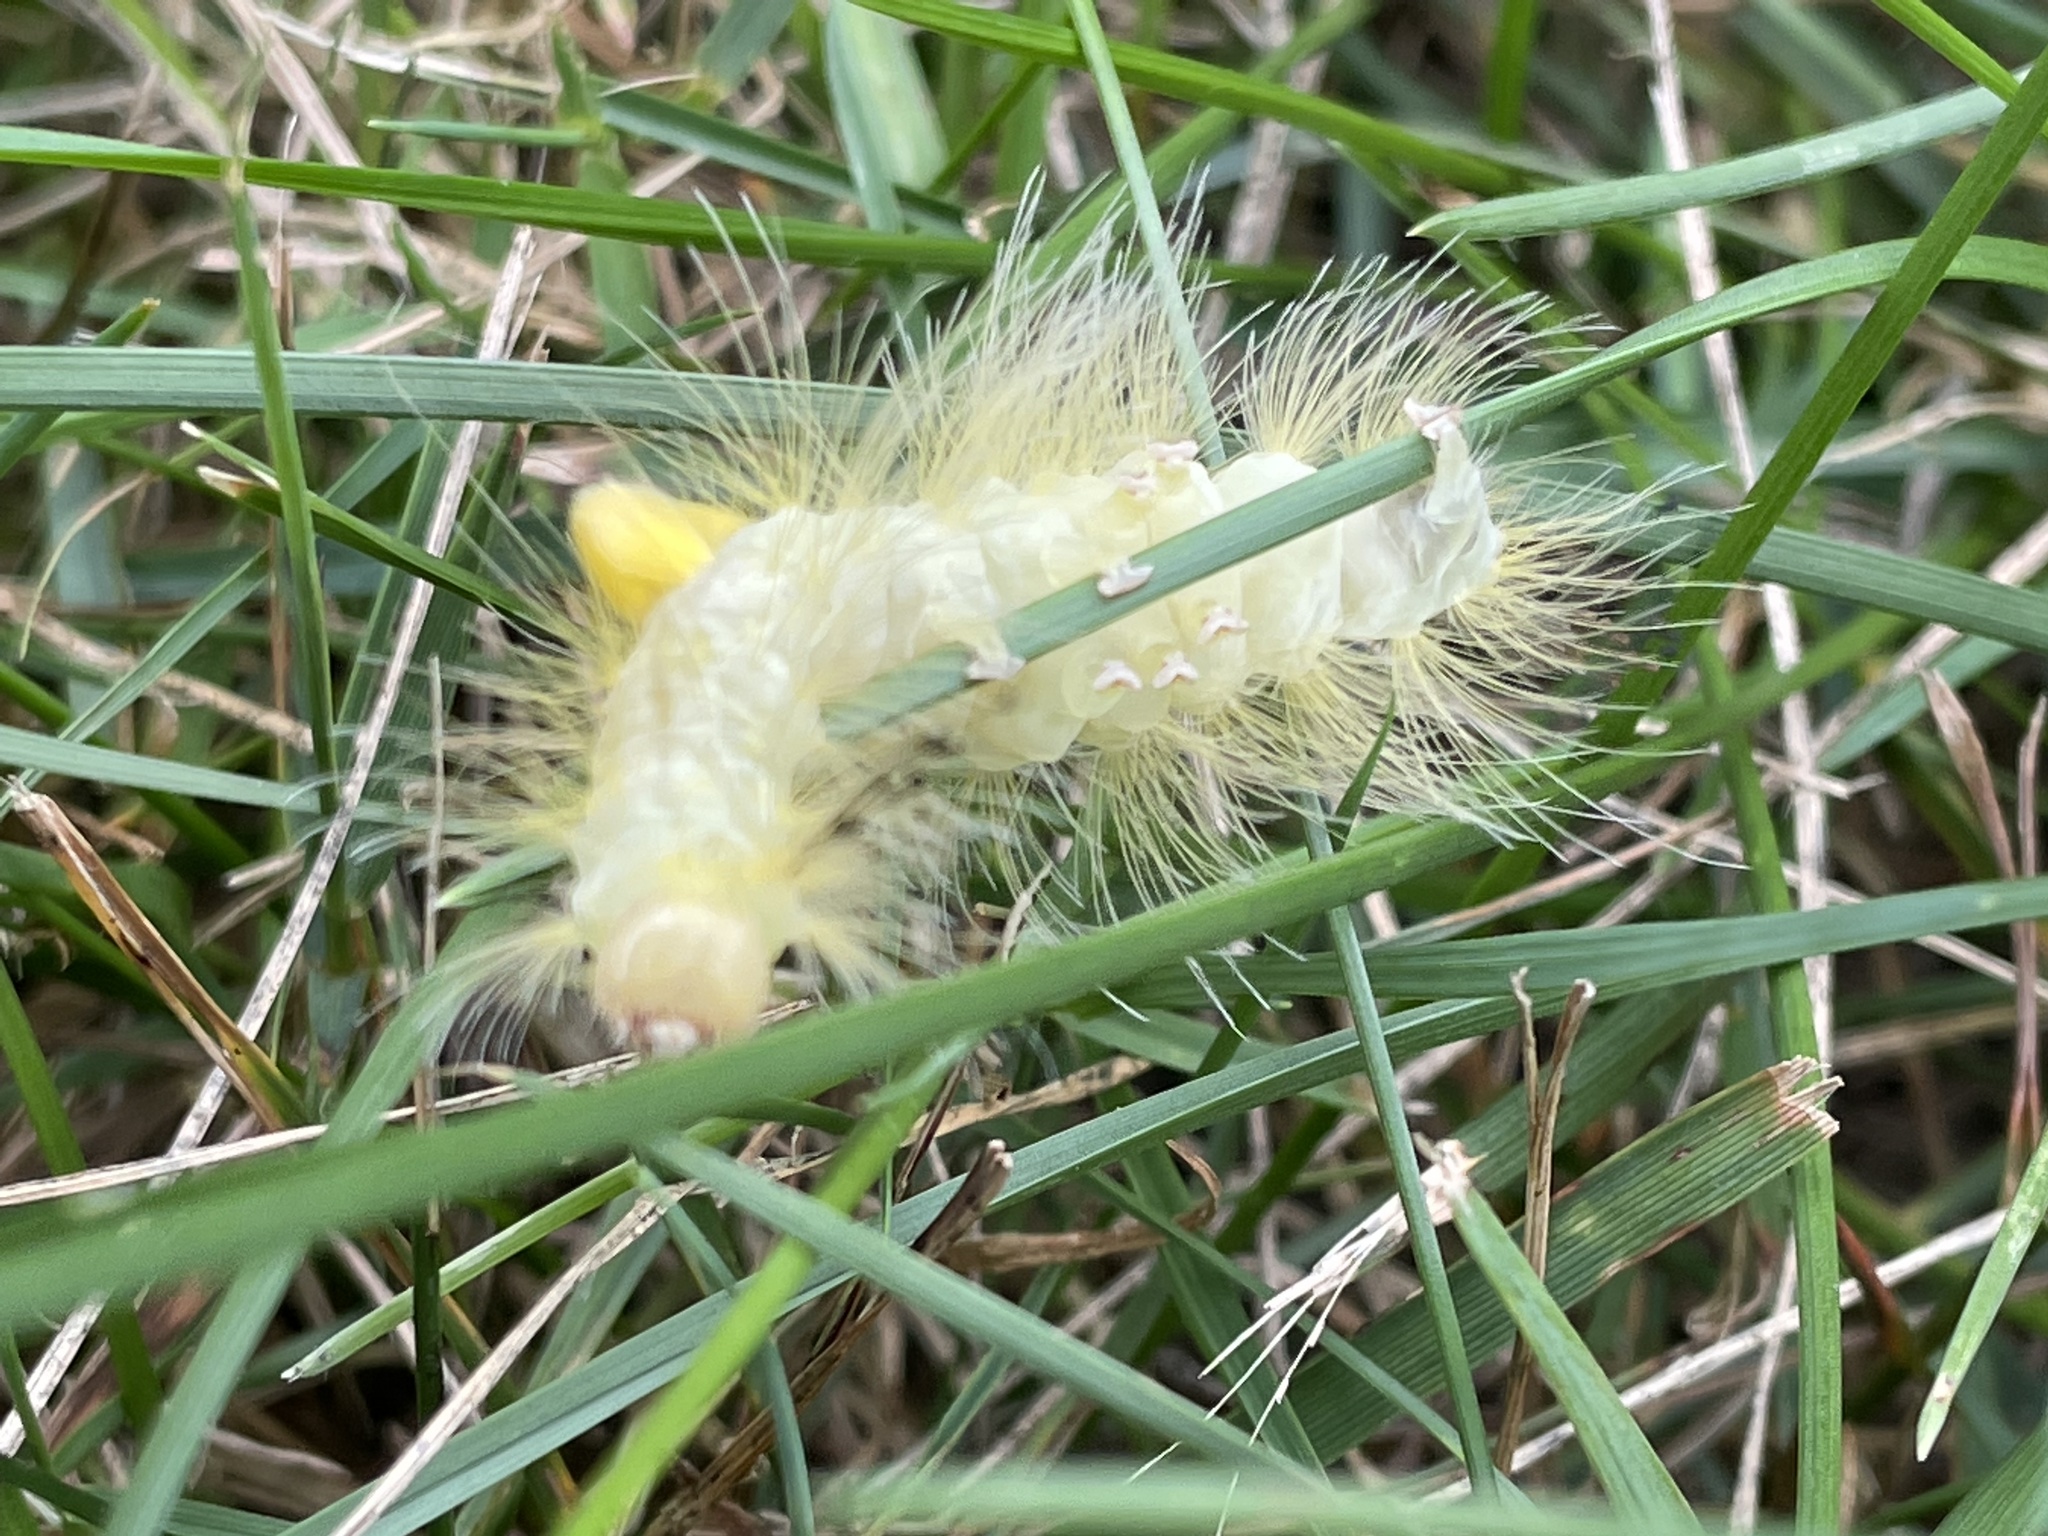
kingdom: Animalia
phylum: Arthropoda
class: Insecta
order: Lepidoptera
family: Erebidae
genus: Orgyia
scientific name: Orgyia definita
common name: Definite tussock moth
